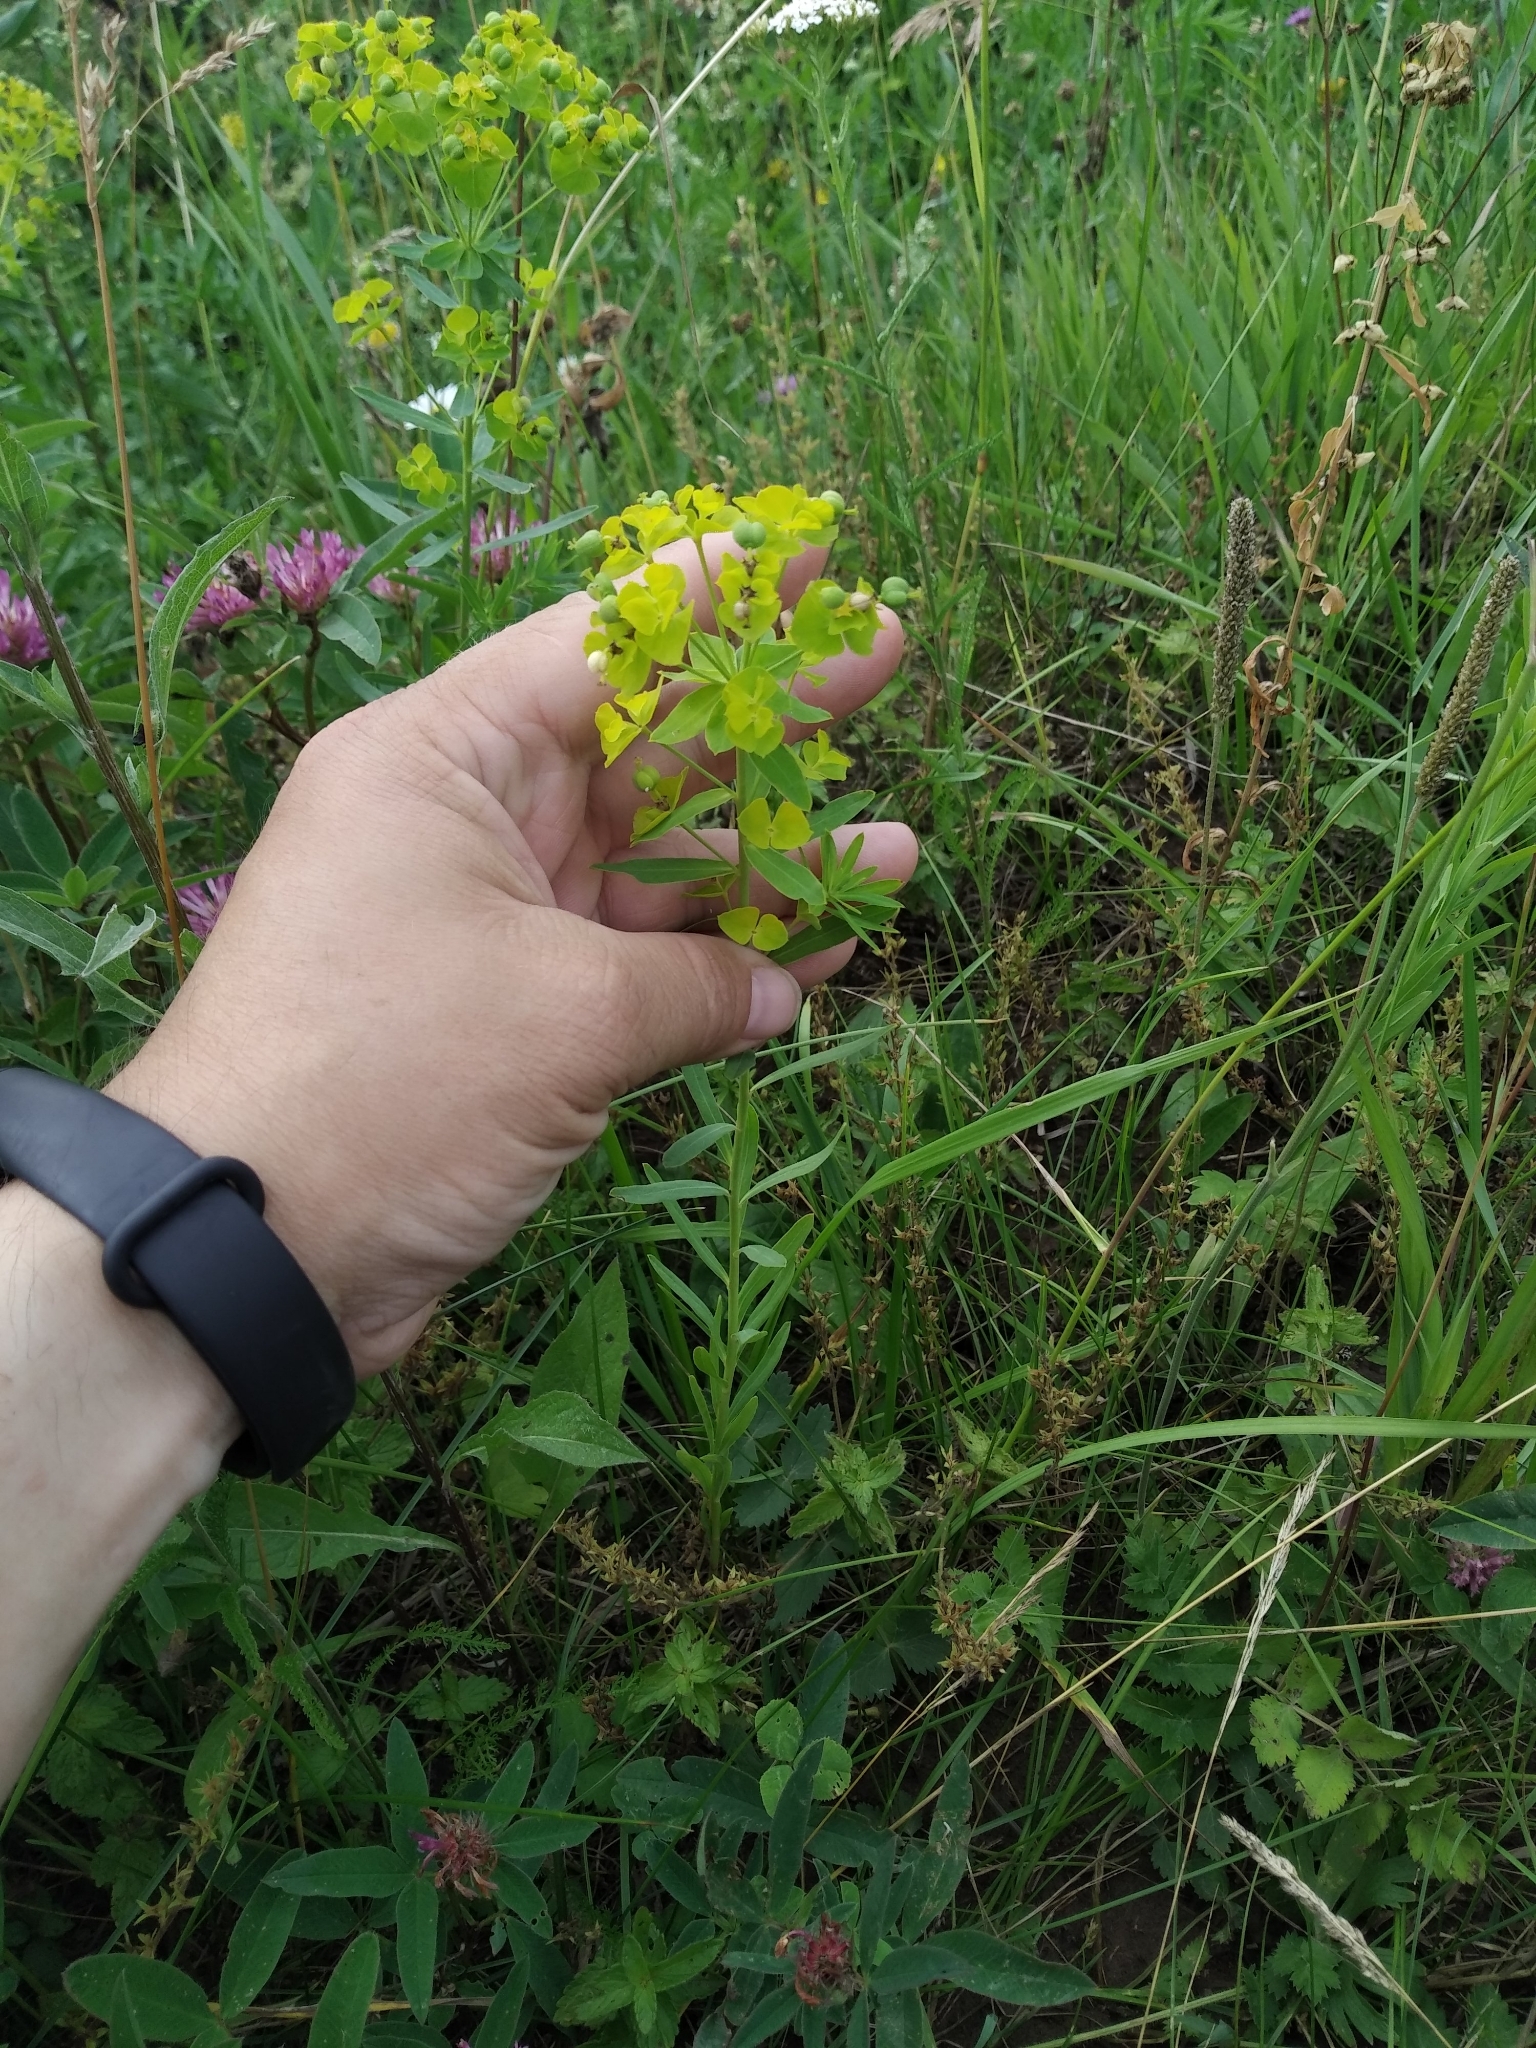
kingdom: Plantae
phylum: Tracheophyta
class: Magnoliopsida
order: Malpighiales
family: Euphorbiaceae
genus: Euphorbia
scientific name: Euphorbia virgata
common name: Leafy spurge
